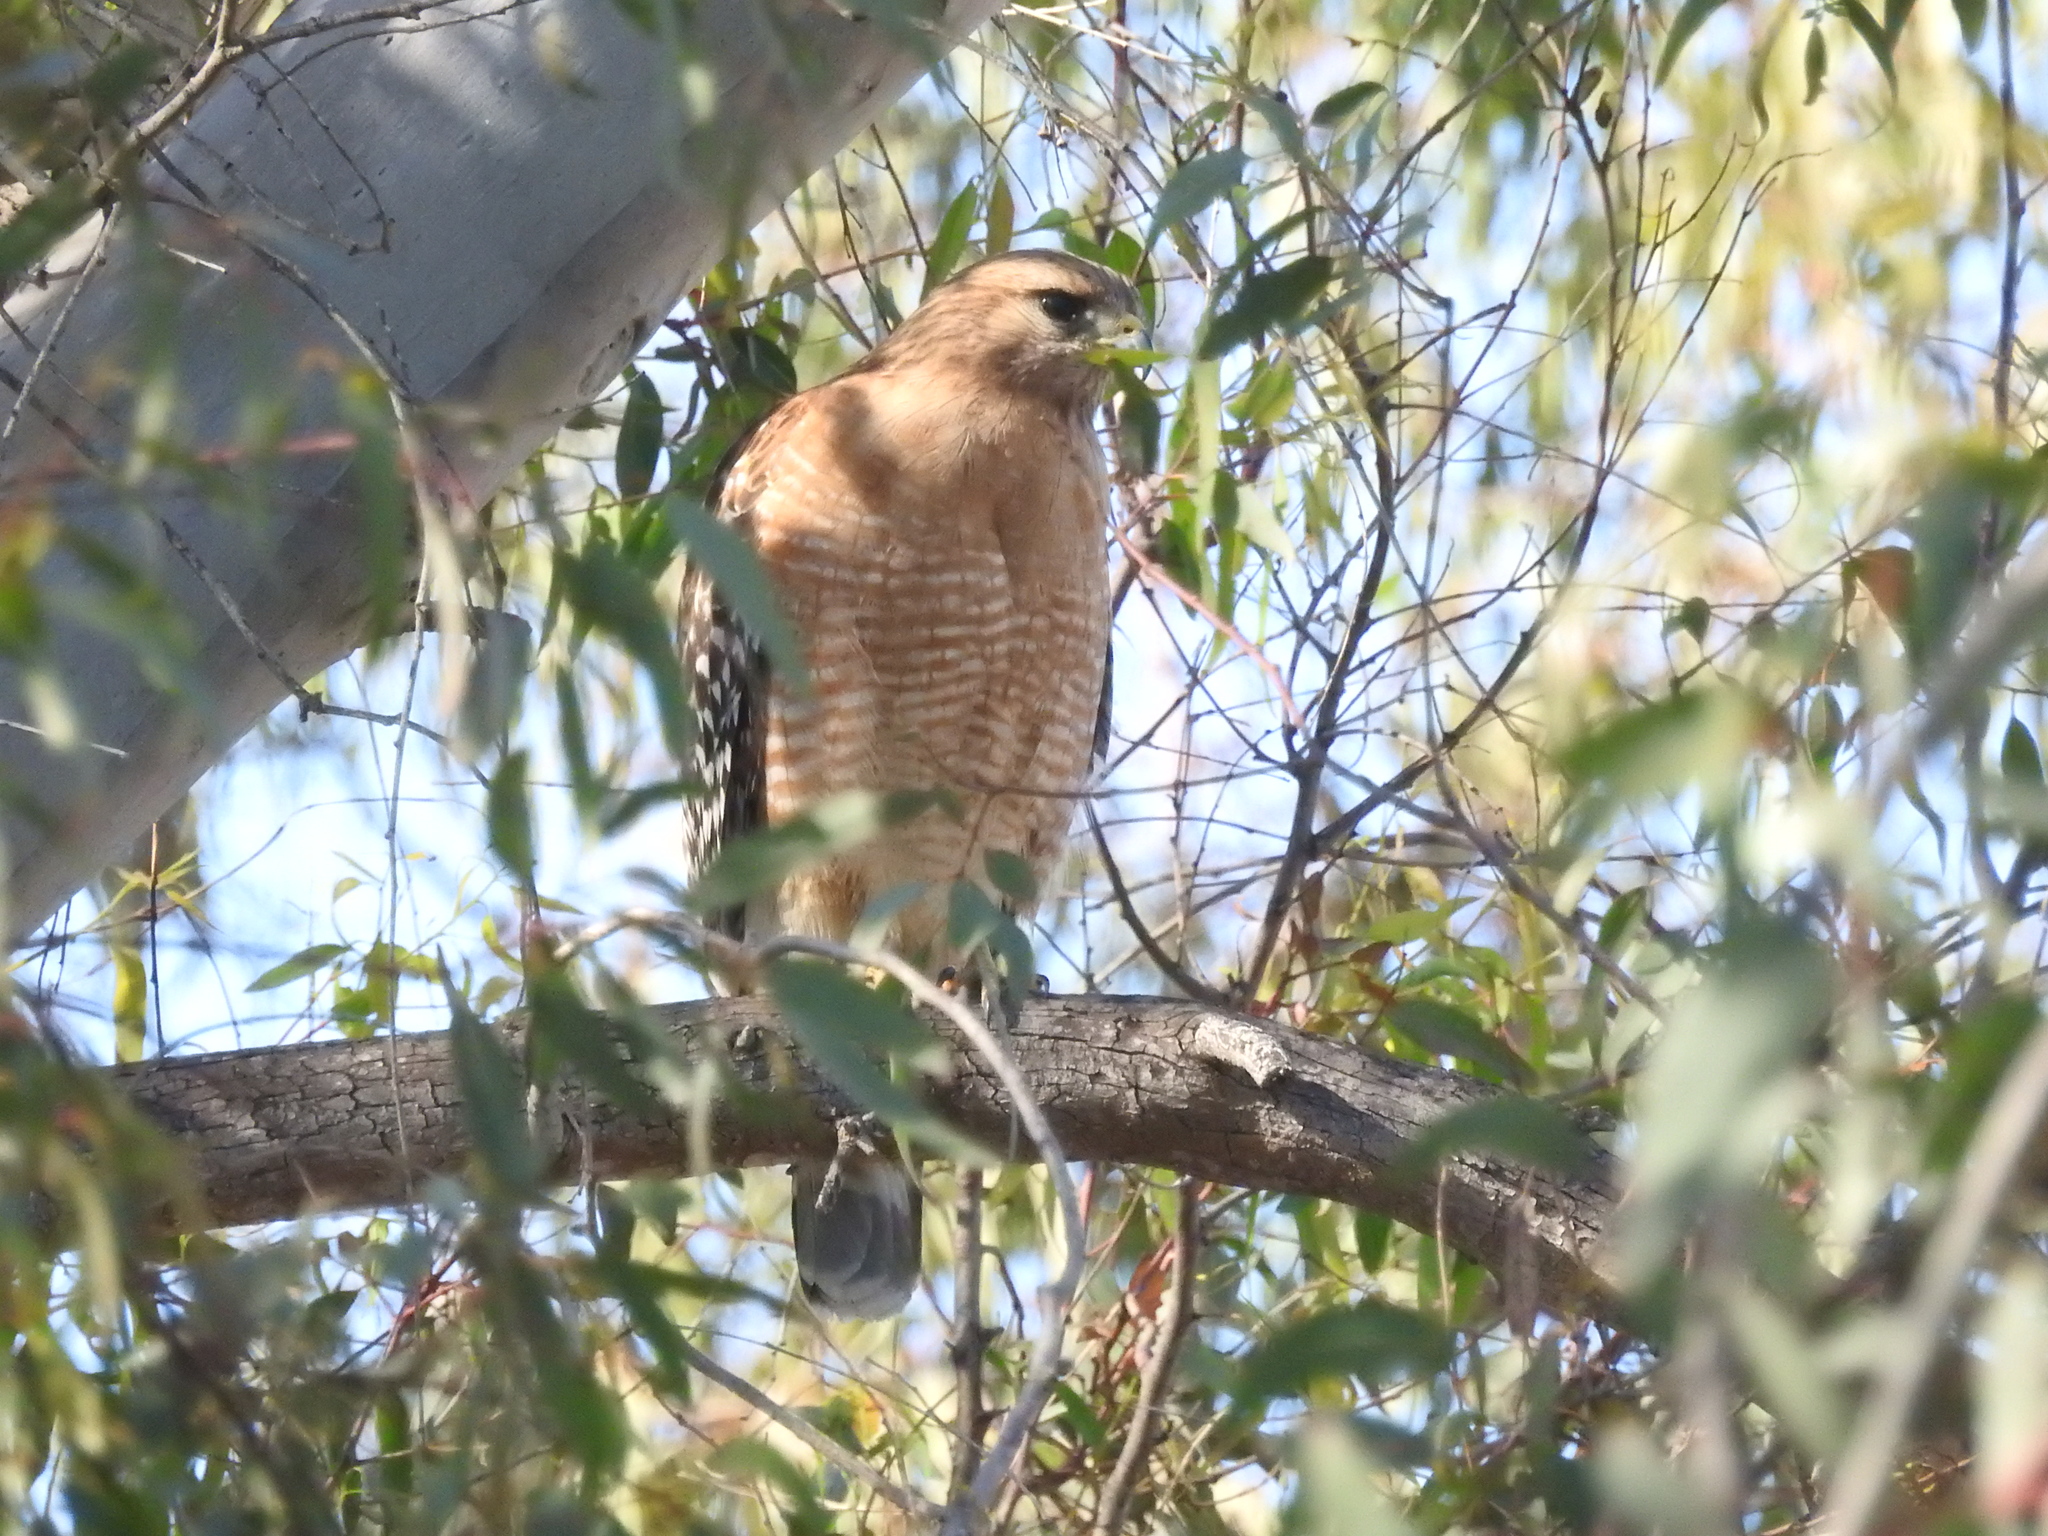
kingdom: Animalia
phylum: Chordata
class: Aves
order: Accipitriformes
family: Accipitridae
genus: Buteo
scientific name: Buteo lineatus
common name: Red-shouldered hawk
